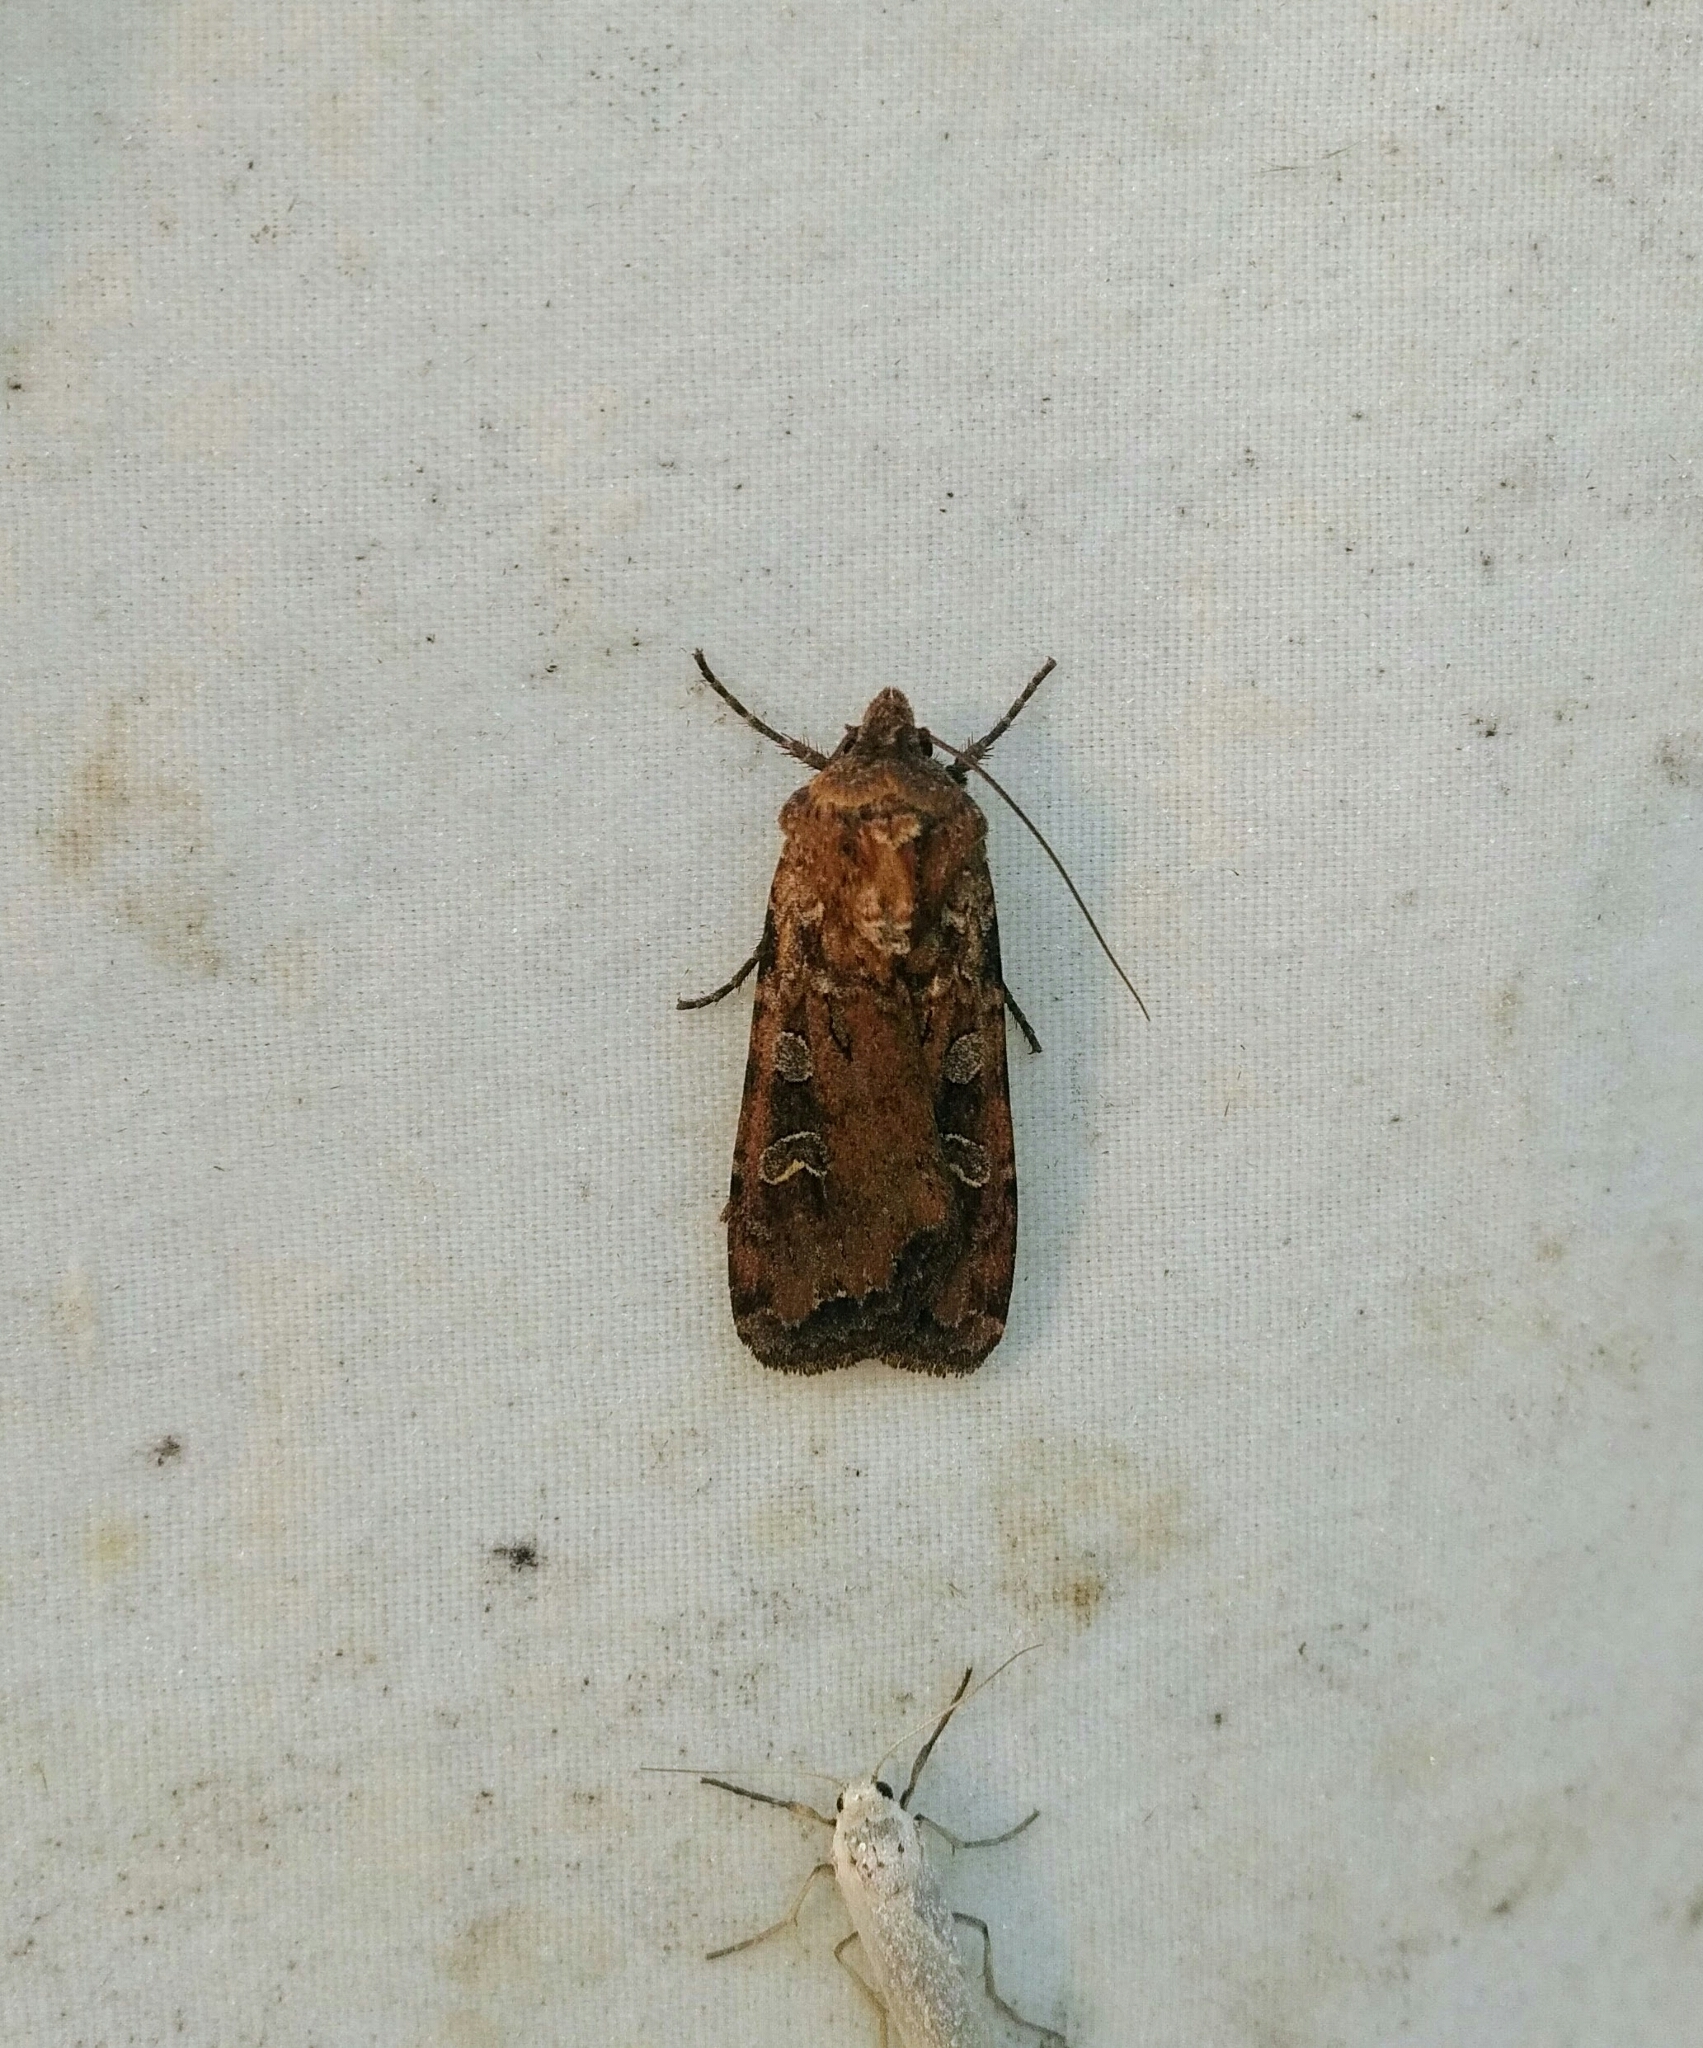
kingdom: Animalia
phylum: Arthropoda
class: Insecta
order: Lepidoptera
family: Noctuidae
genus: Euxoa
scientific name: Euxoa ochrogaster
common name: Red-backed cutworm moth
